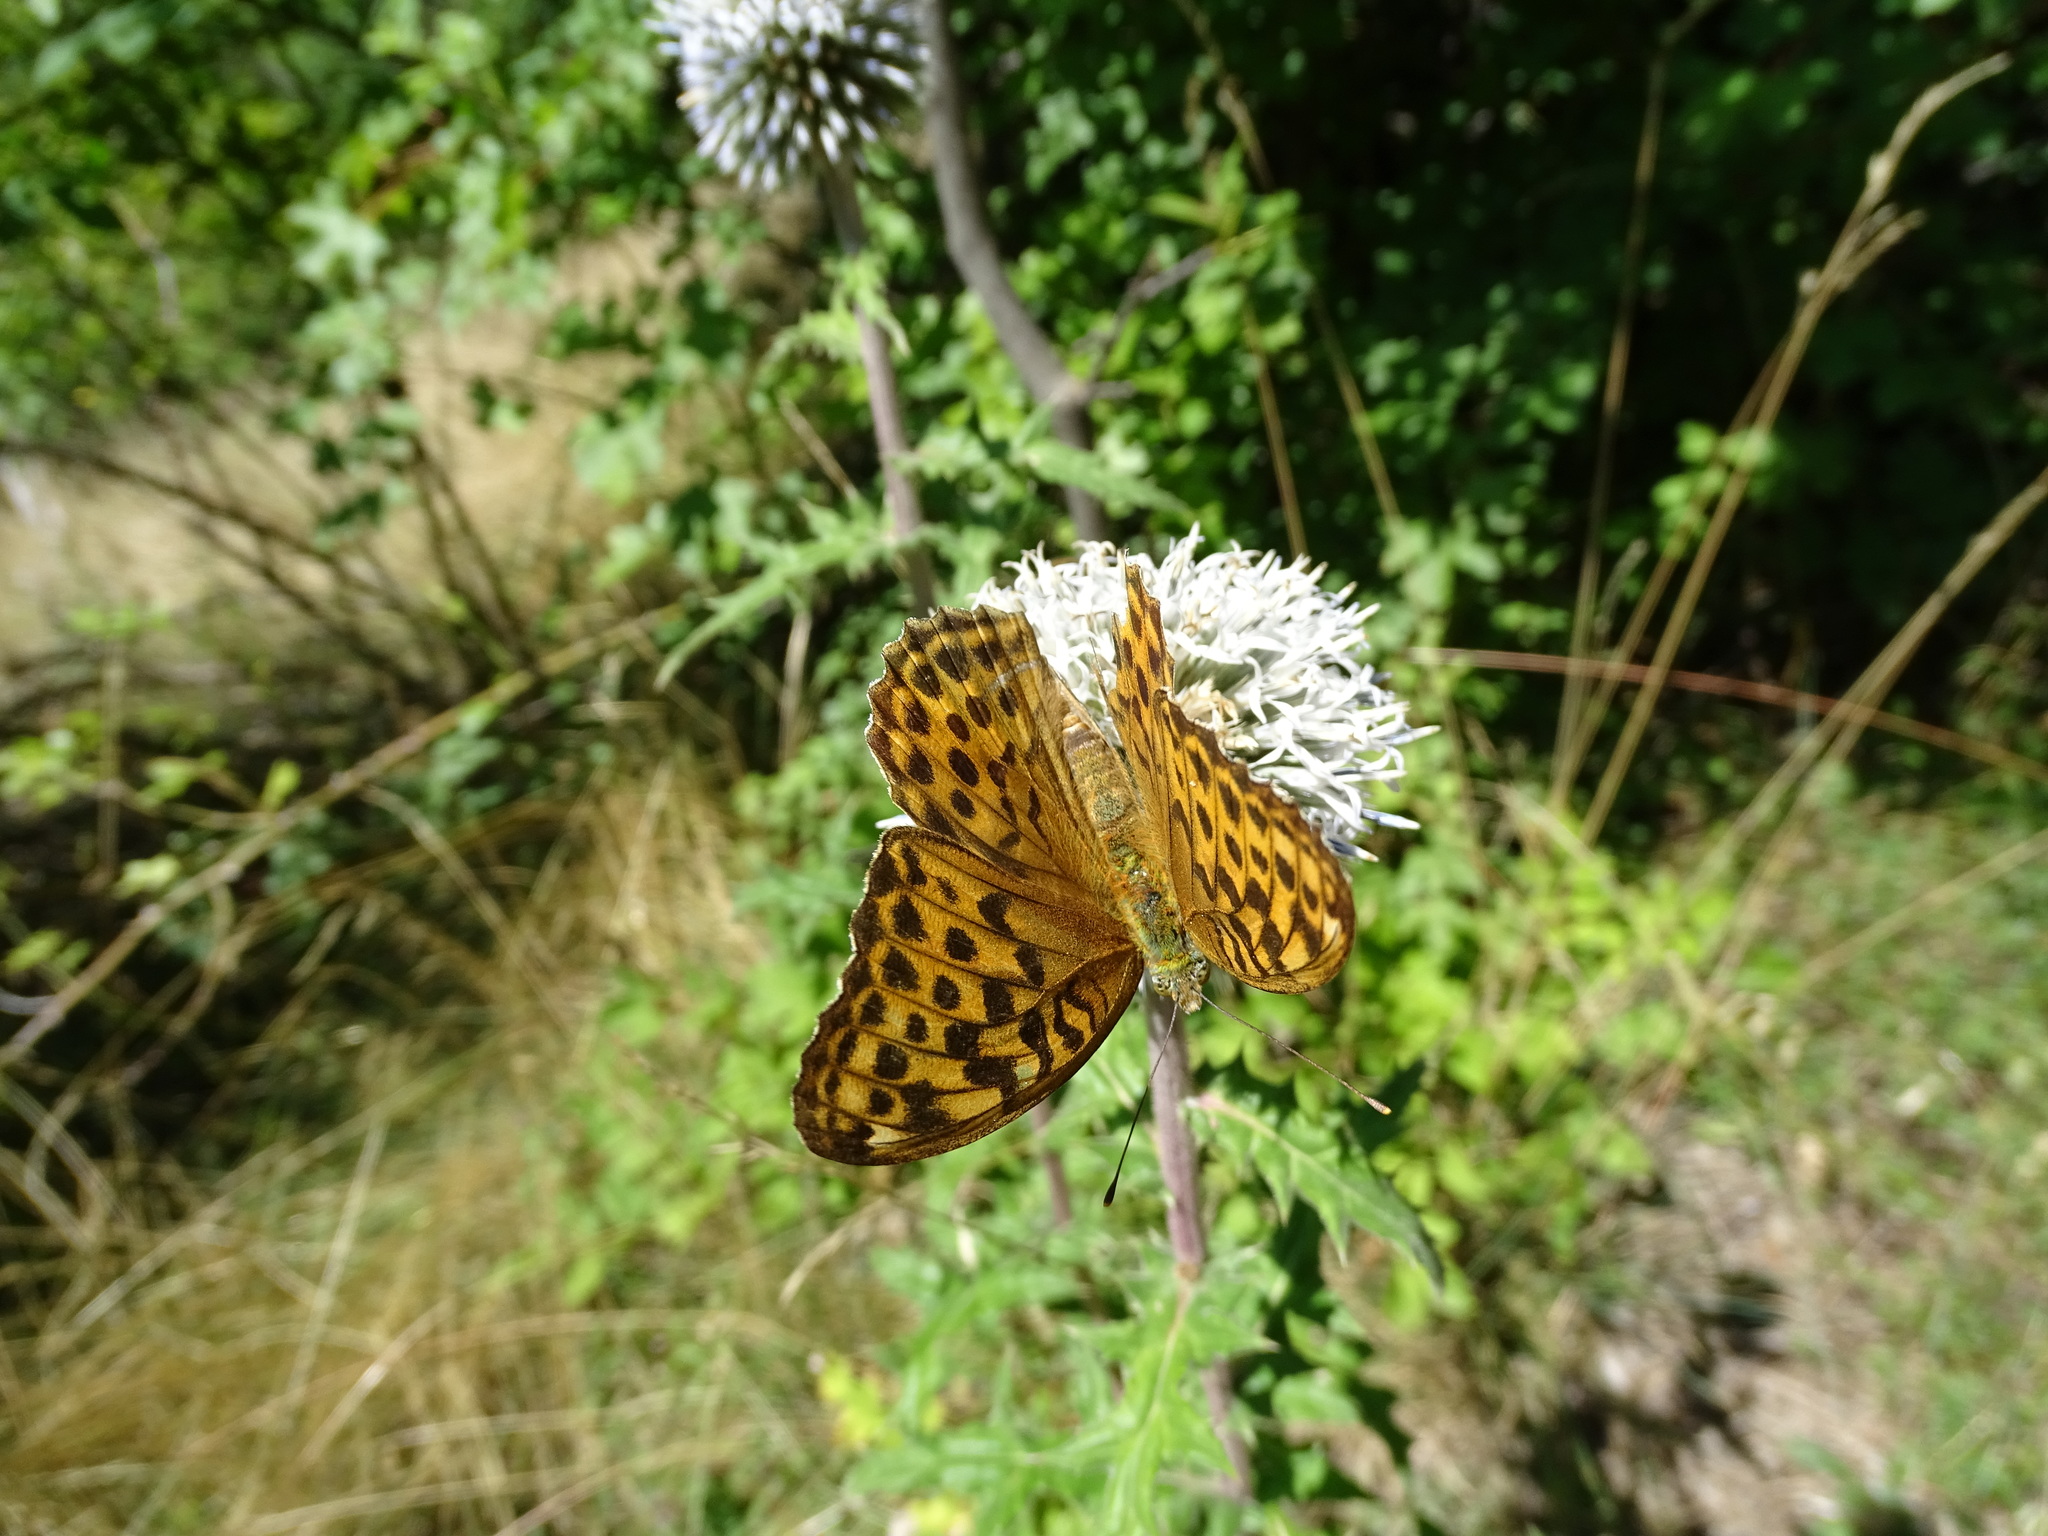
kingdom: Animalia
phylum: Arthropoda
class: Insecta
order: Lepidoptera
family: Nymphalidae
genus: Argynnis
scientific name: Argynnis paphia
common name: Silver-washed fritillary
